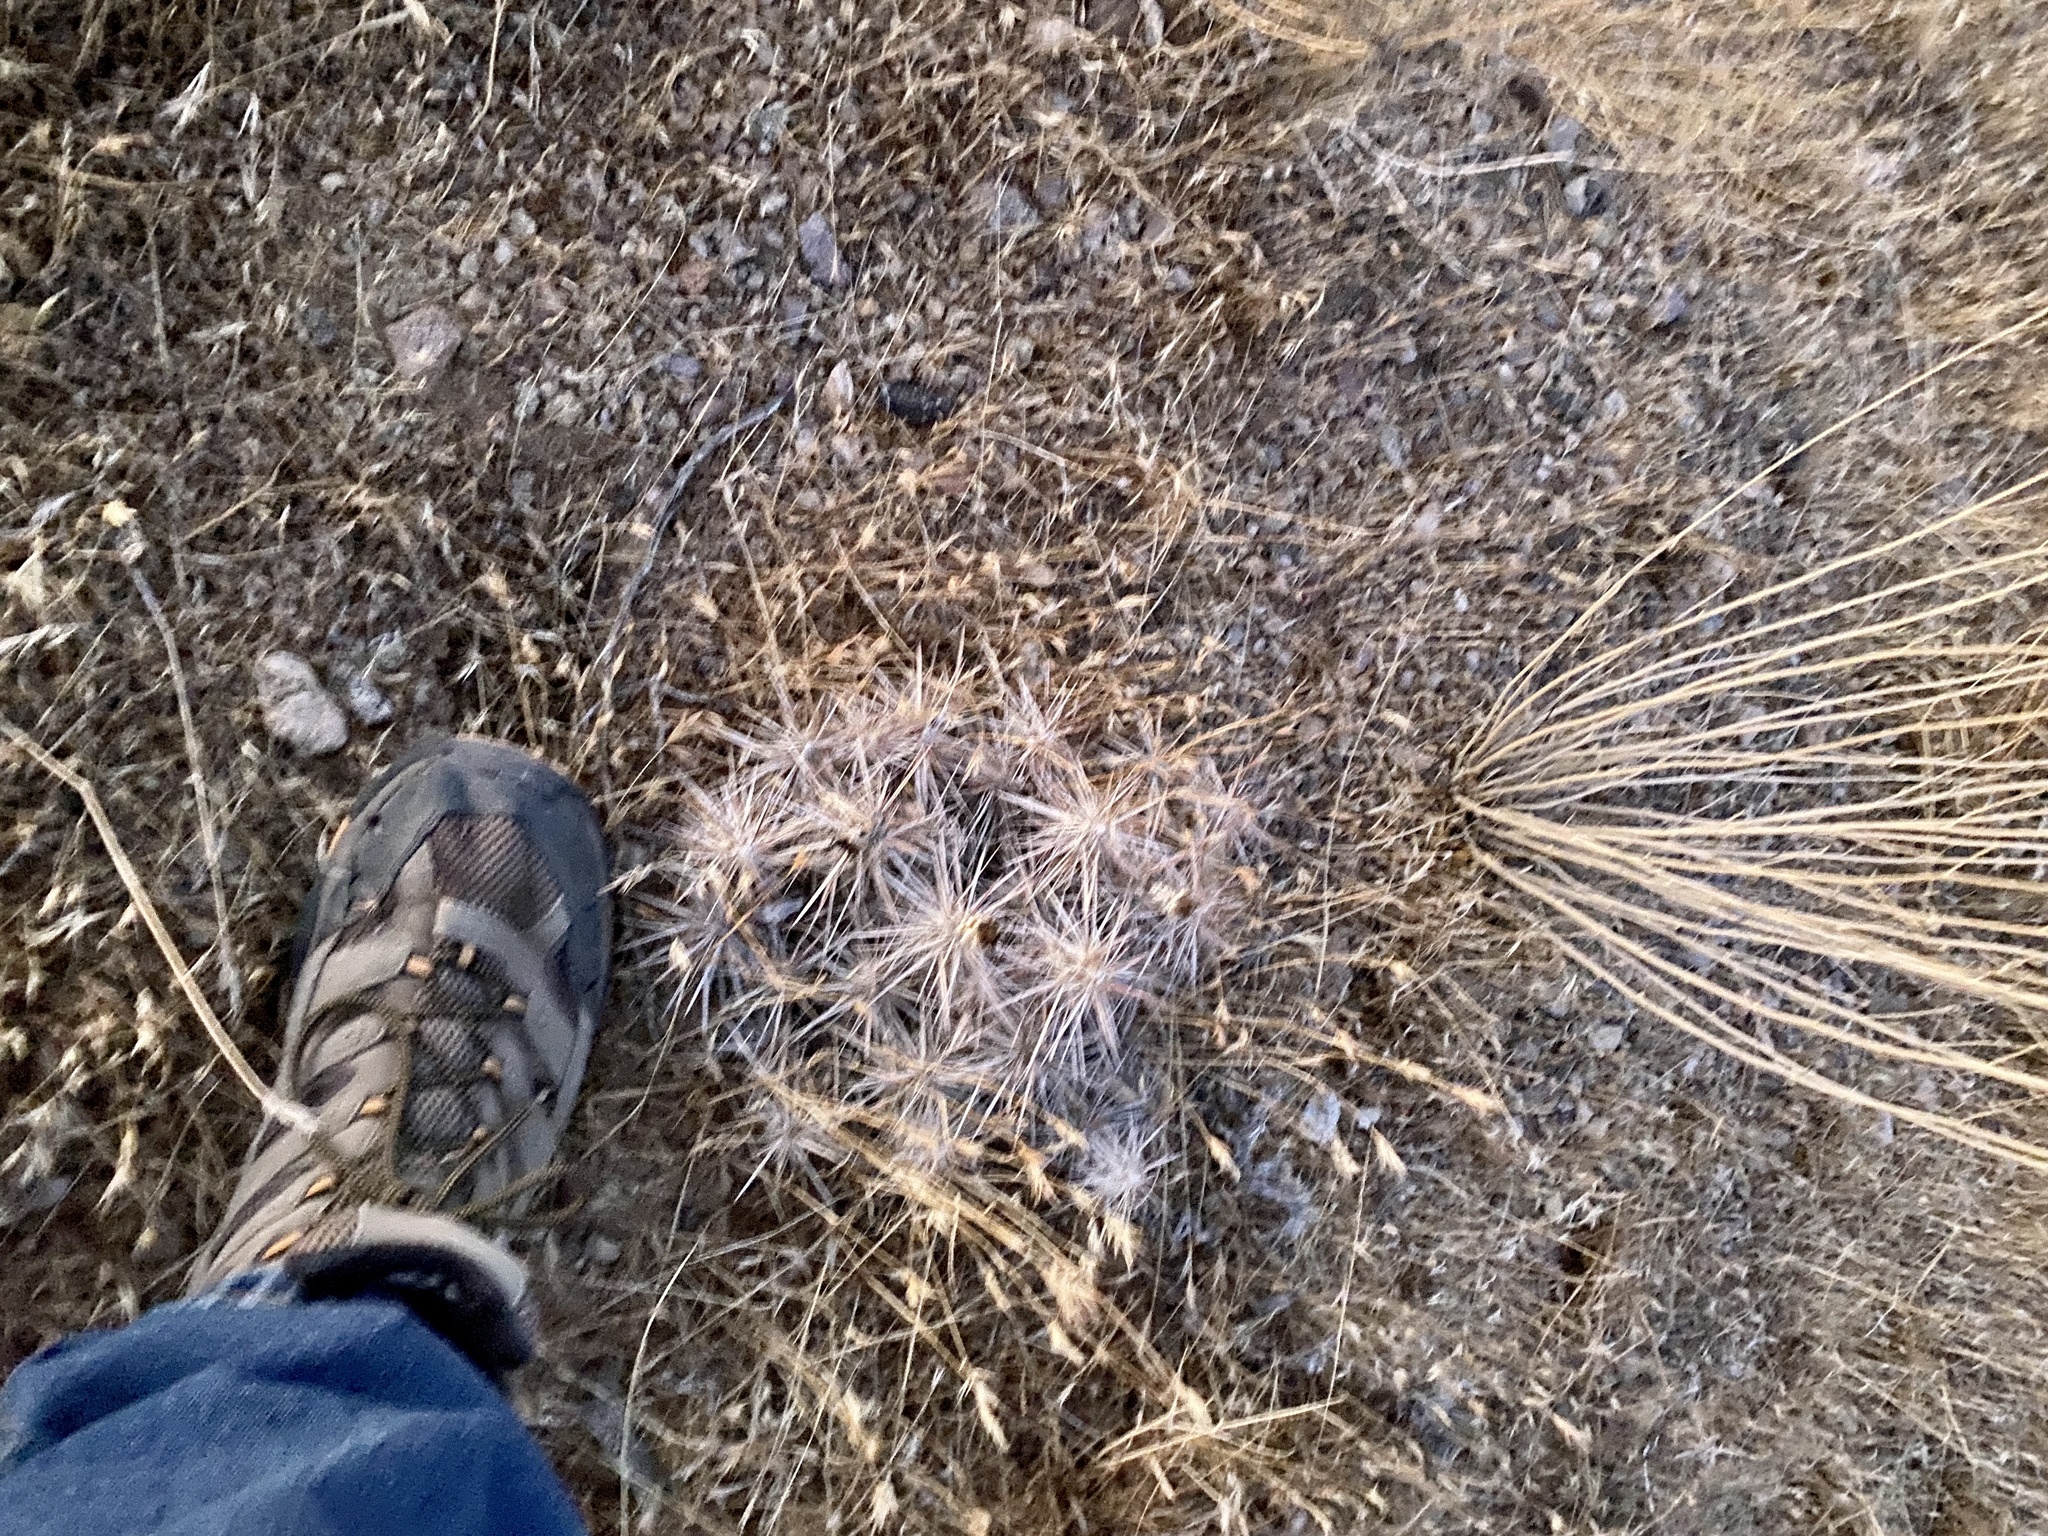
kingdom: Plantae
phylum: Tracheophyta
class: Magnoliopsida
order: Caryophyllales
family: Cactaceae
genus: Grusonia
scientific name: Grusonia parishiorum
